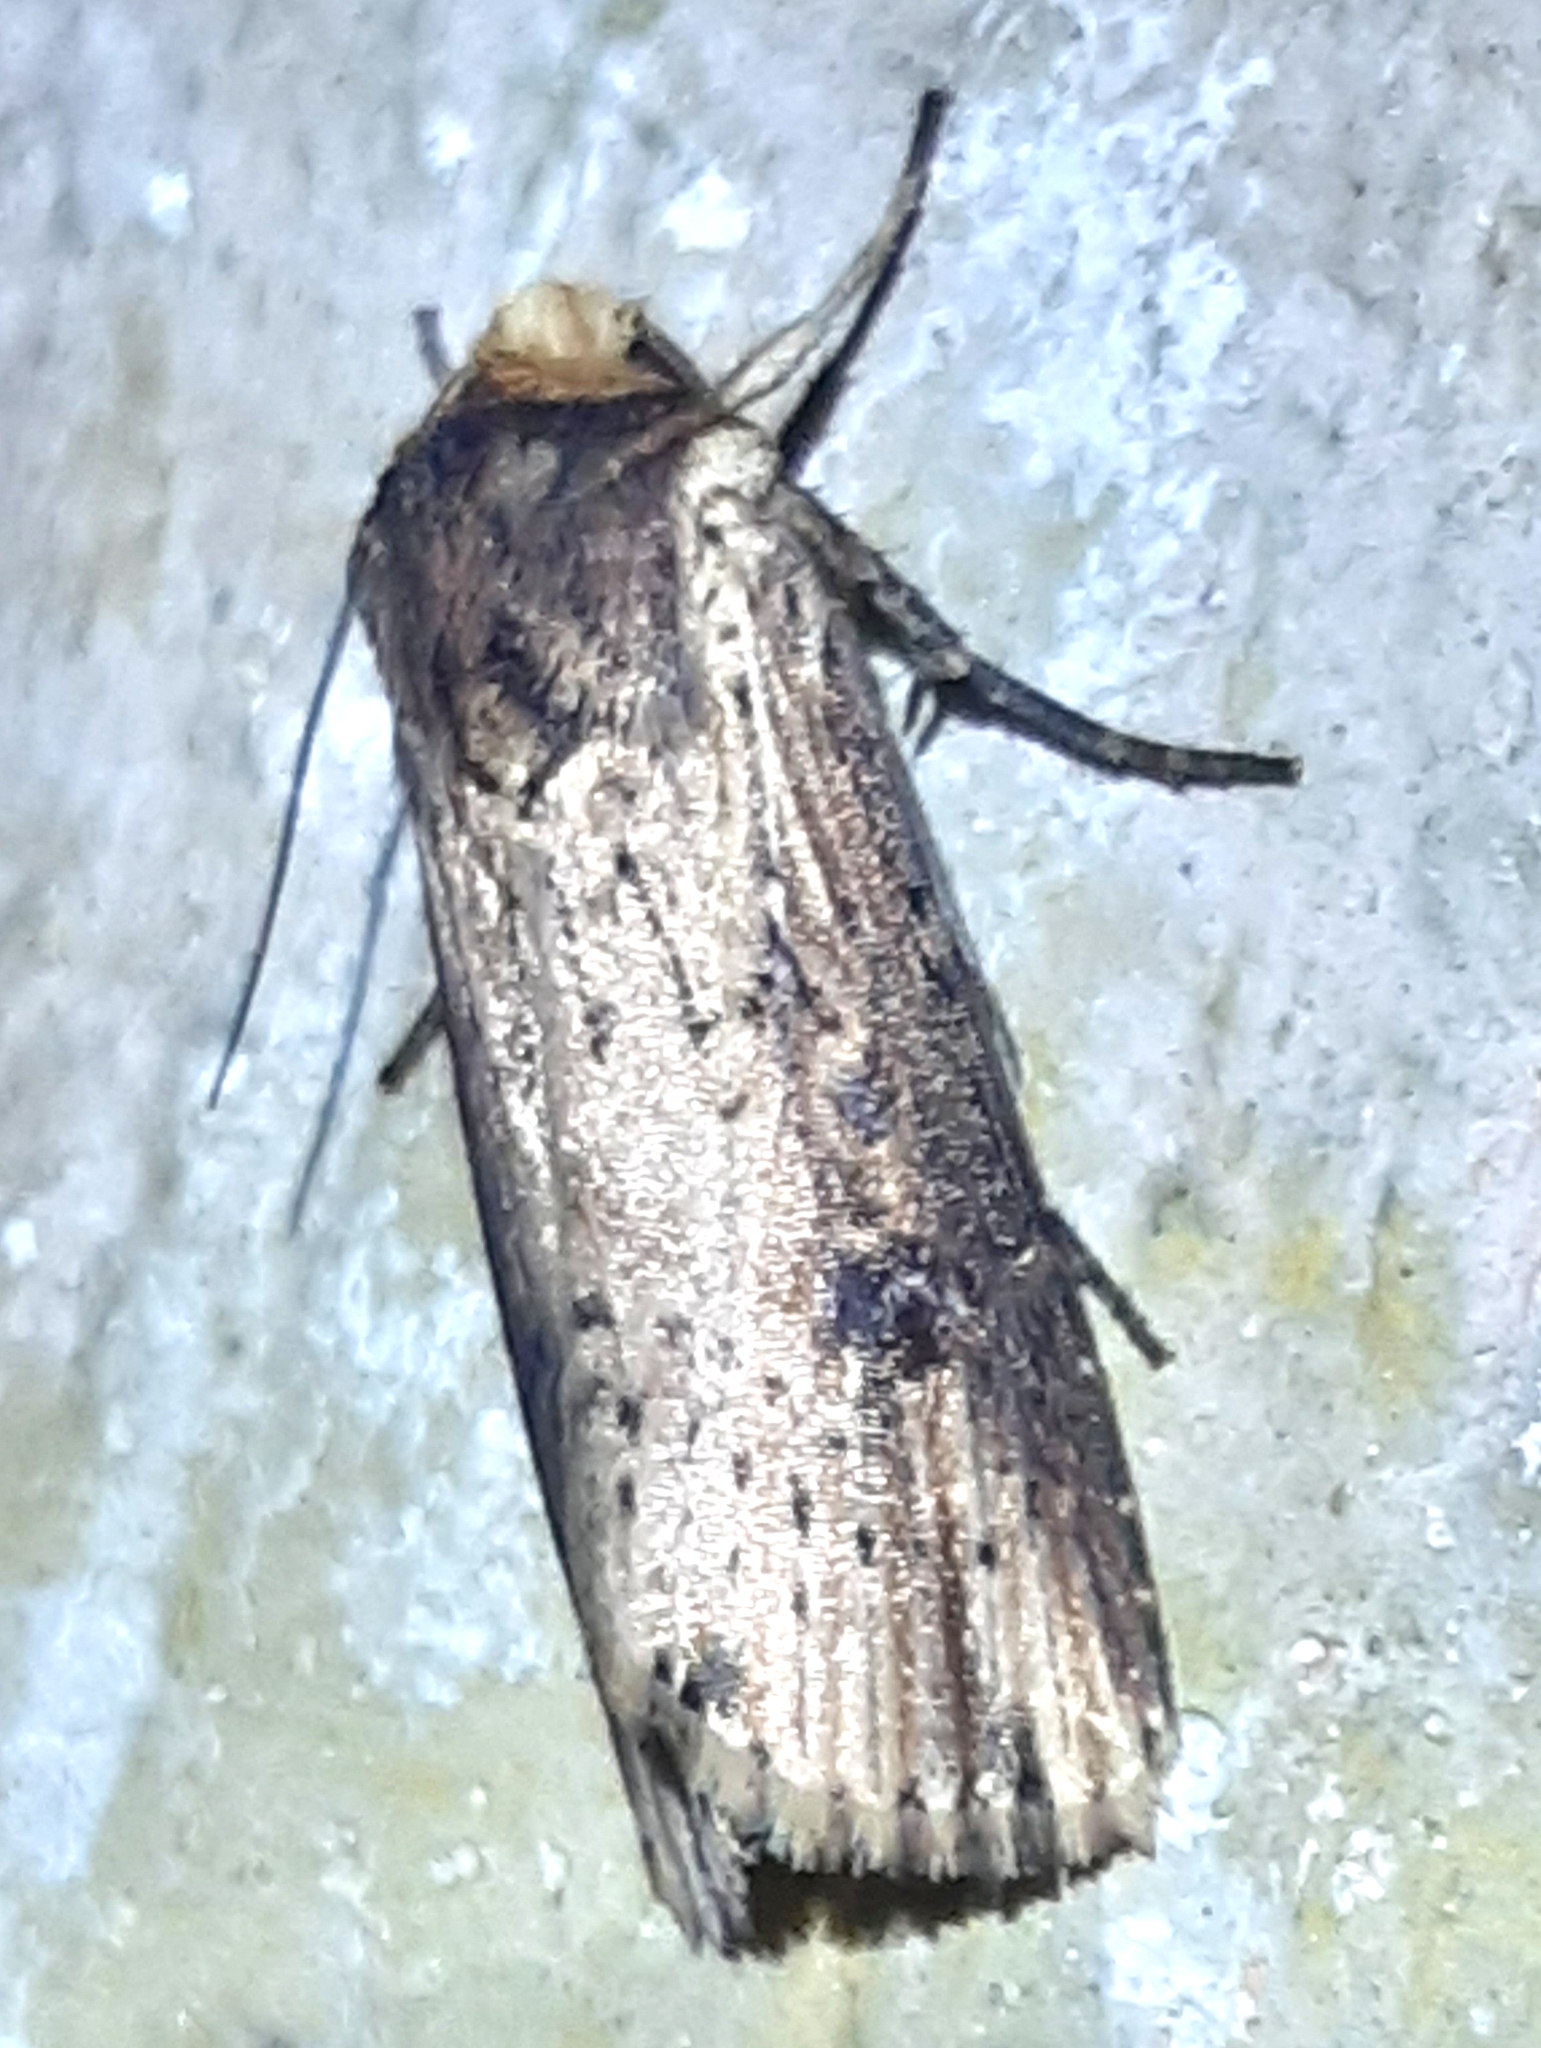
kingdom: Animalia
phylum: Arthropoda
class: Insecta
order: Lepidoptera
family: Noctuidae
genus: Axylia
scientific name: Axylia putris
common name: Flame
